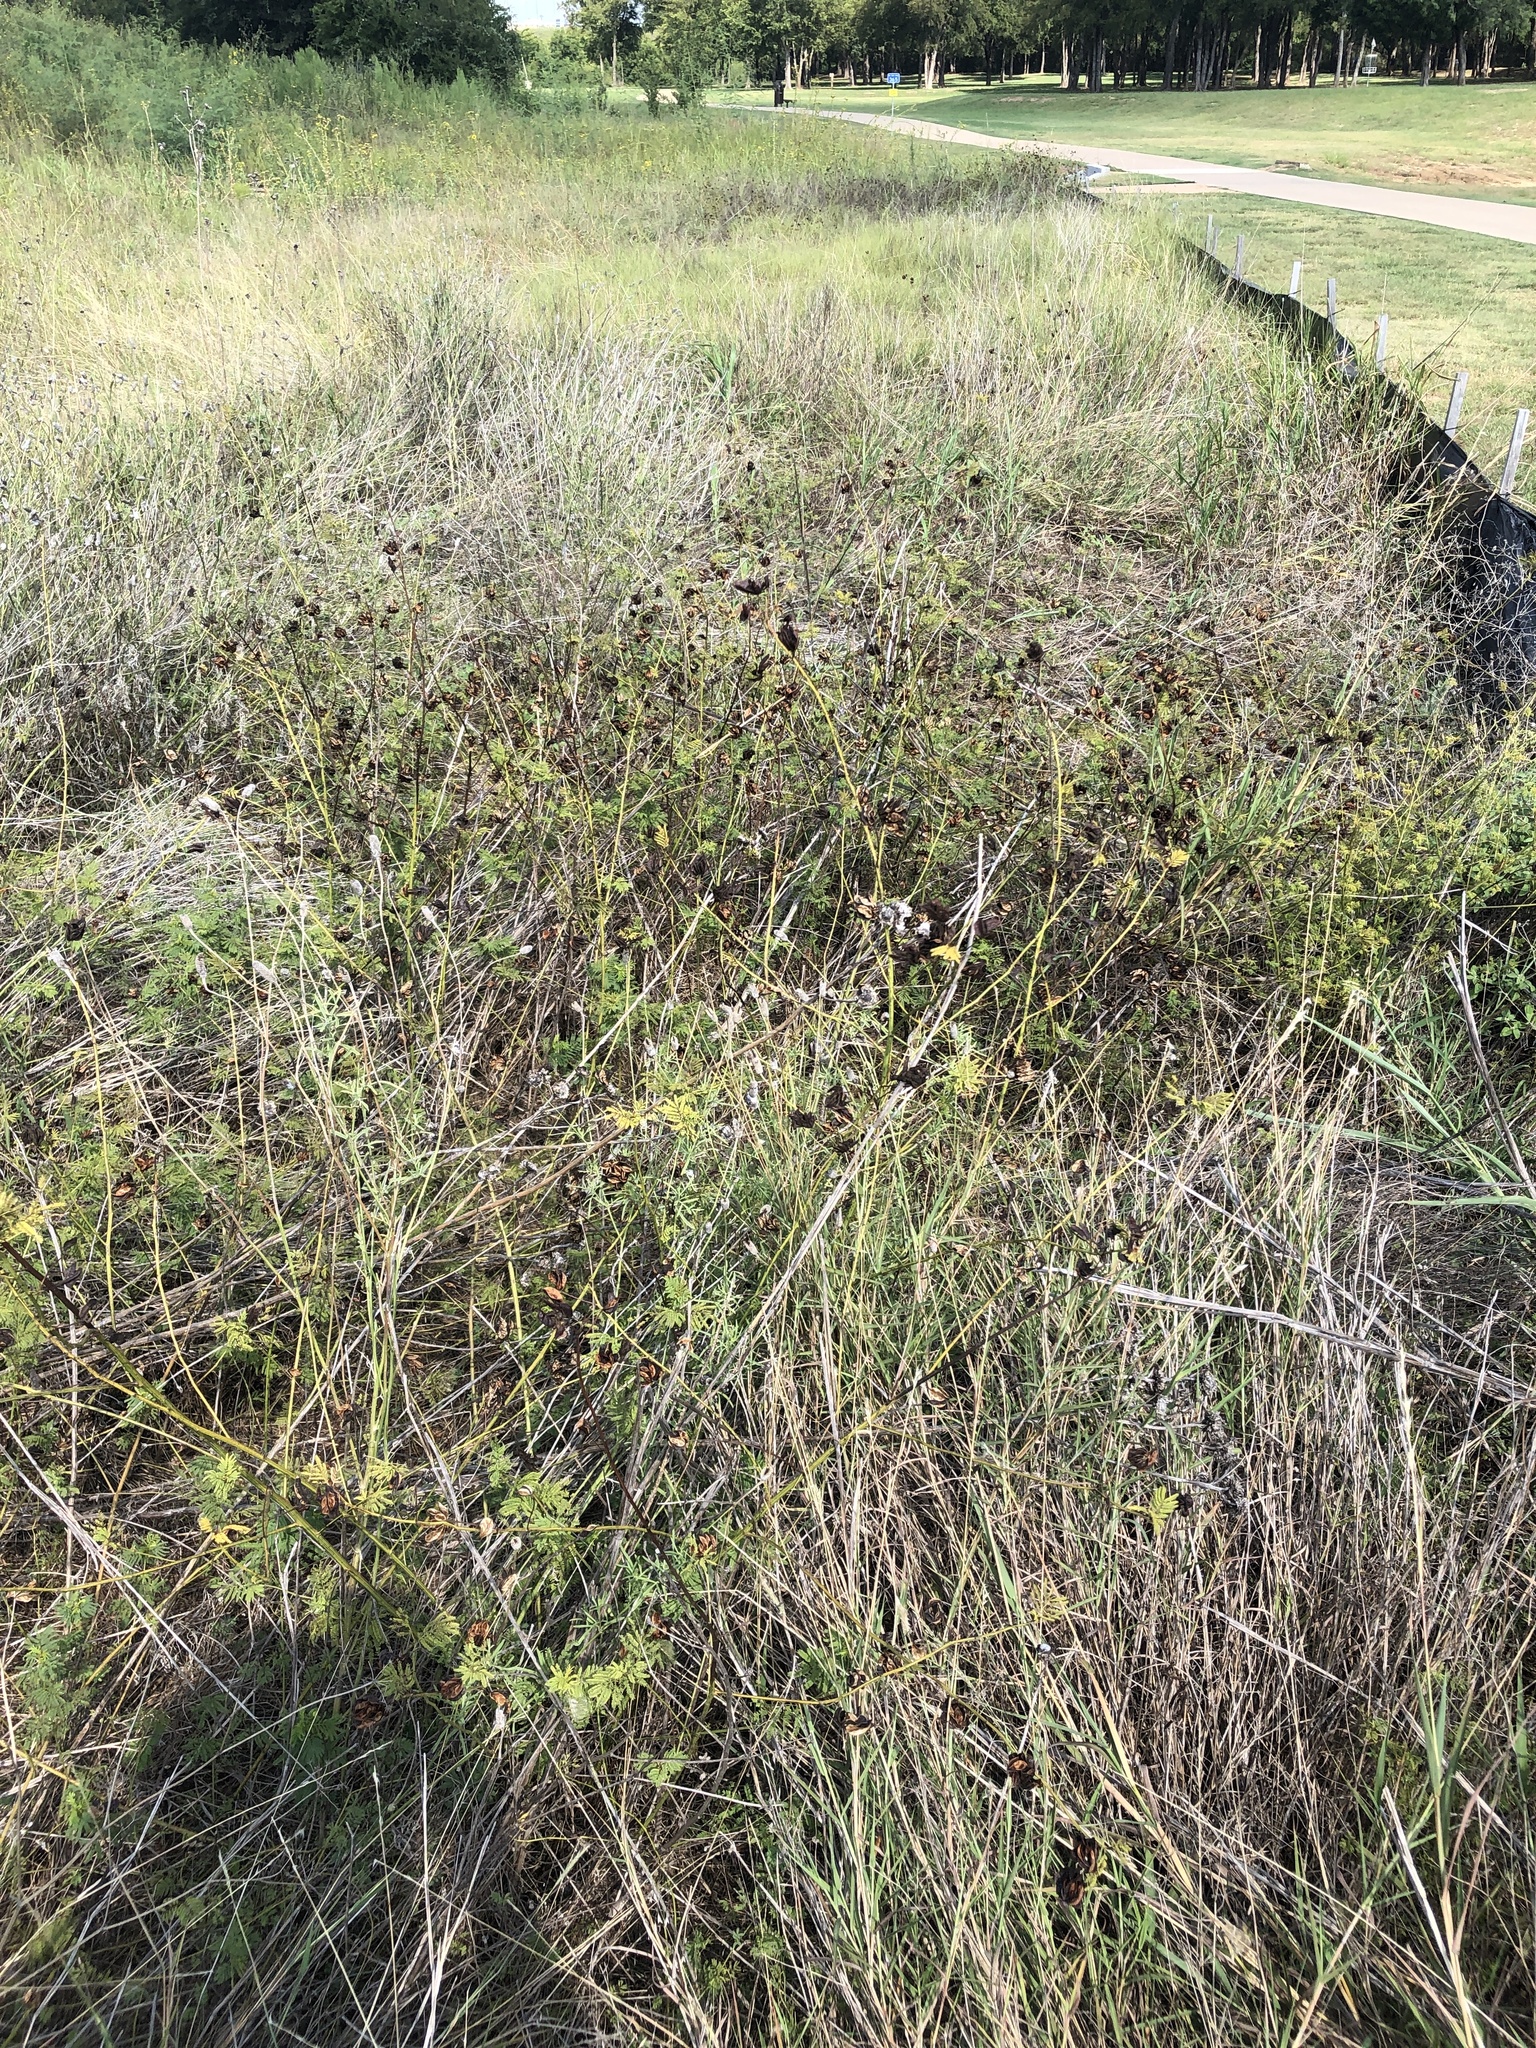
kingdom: Plantae
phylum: Tracheophyta
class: Magnoliopsida
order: Fabales
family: Fabaceae
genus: Desmanthus
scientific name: Desmanthus illinoensis
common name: Illinois bundle-flower
